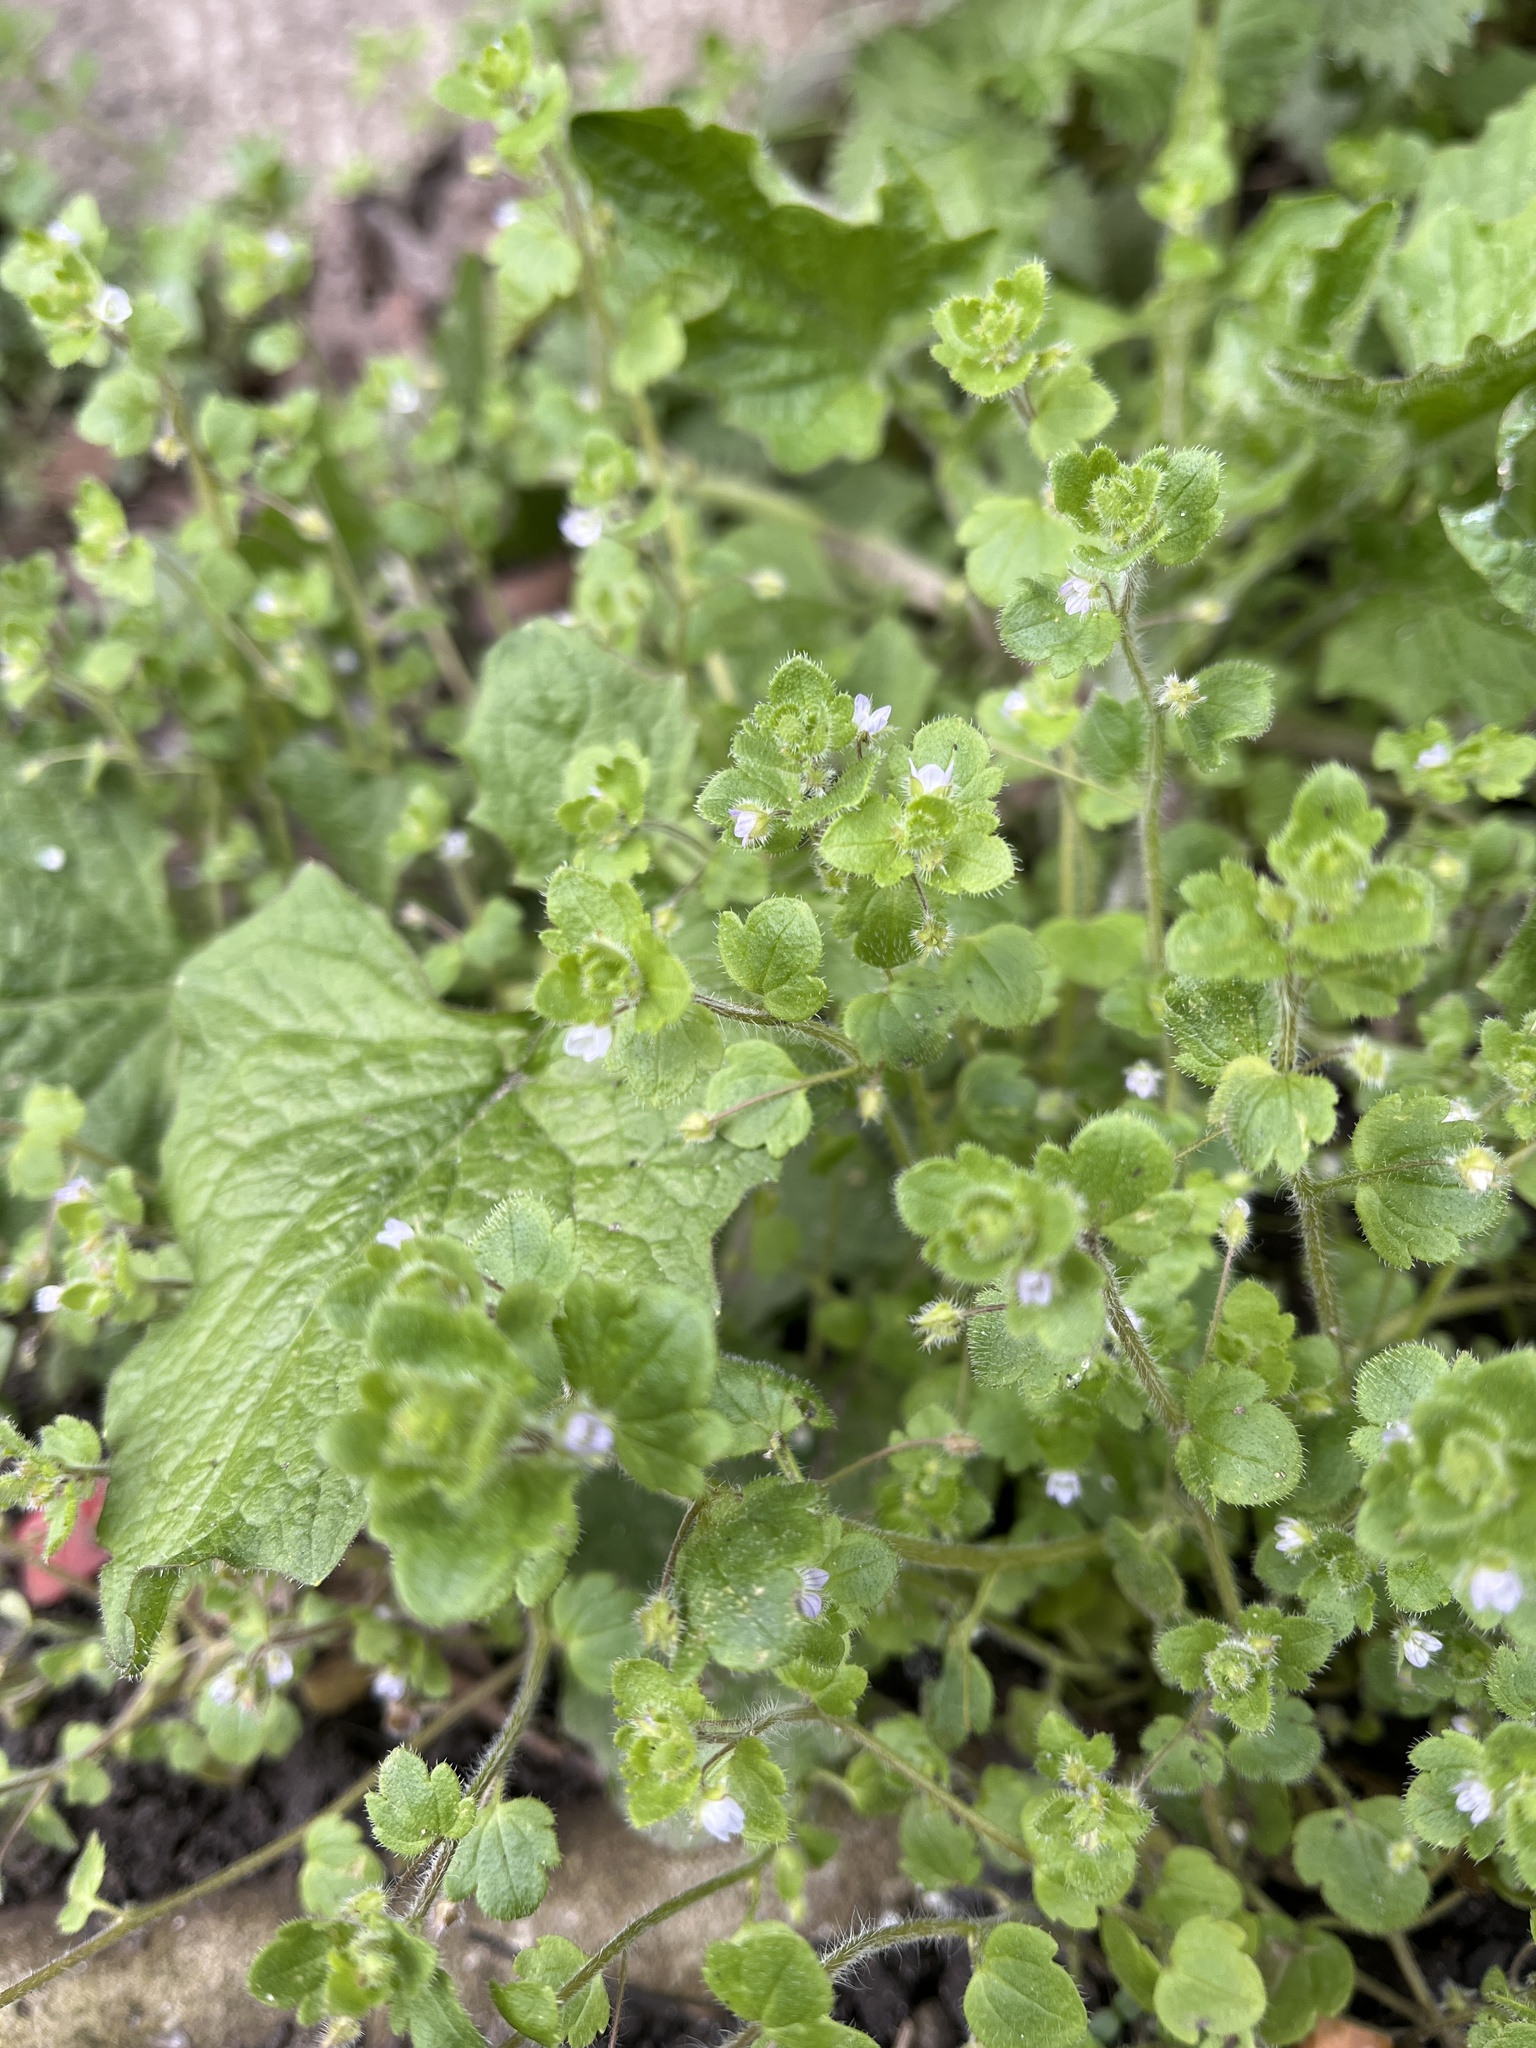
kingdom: Plantae
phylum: Tracheophyta
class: Magnoliopsida
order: Lamiales
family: Plantaginaceae
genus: Veronica
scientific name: Veronica sublobata
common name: False ivy-leaved speedwell
